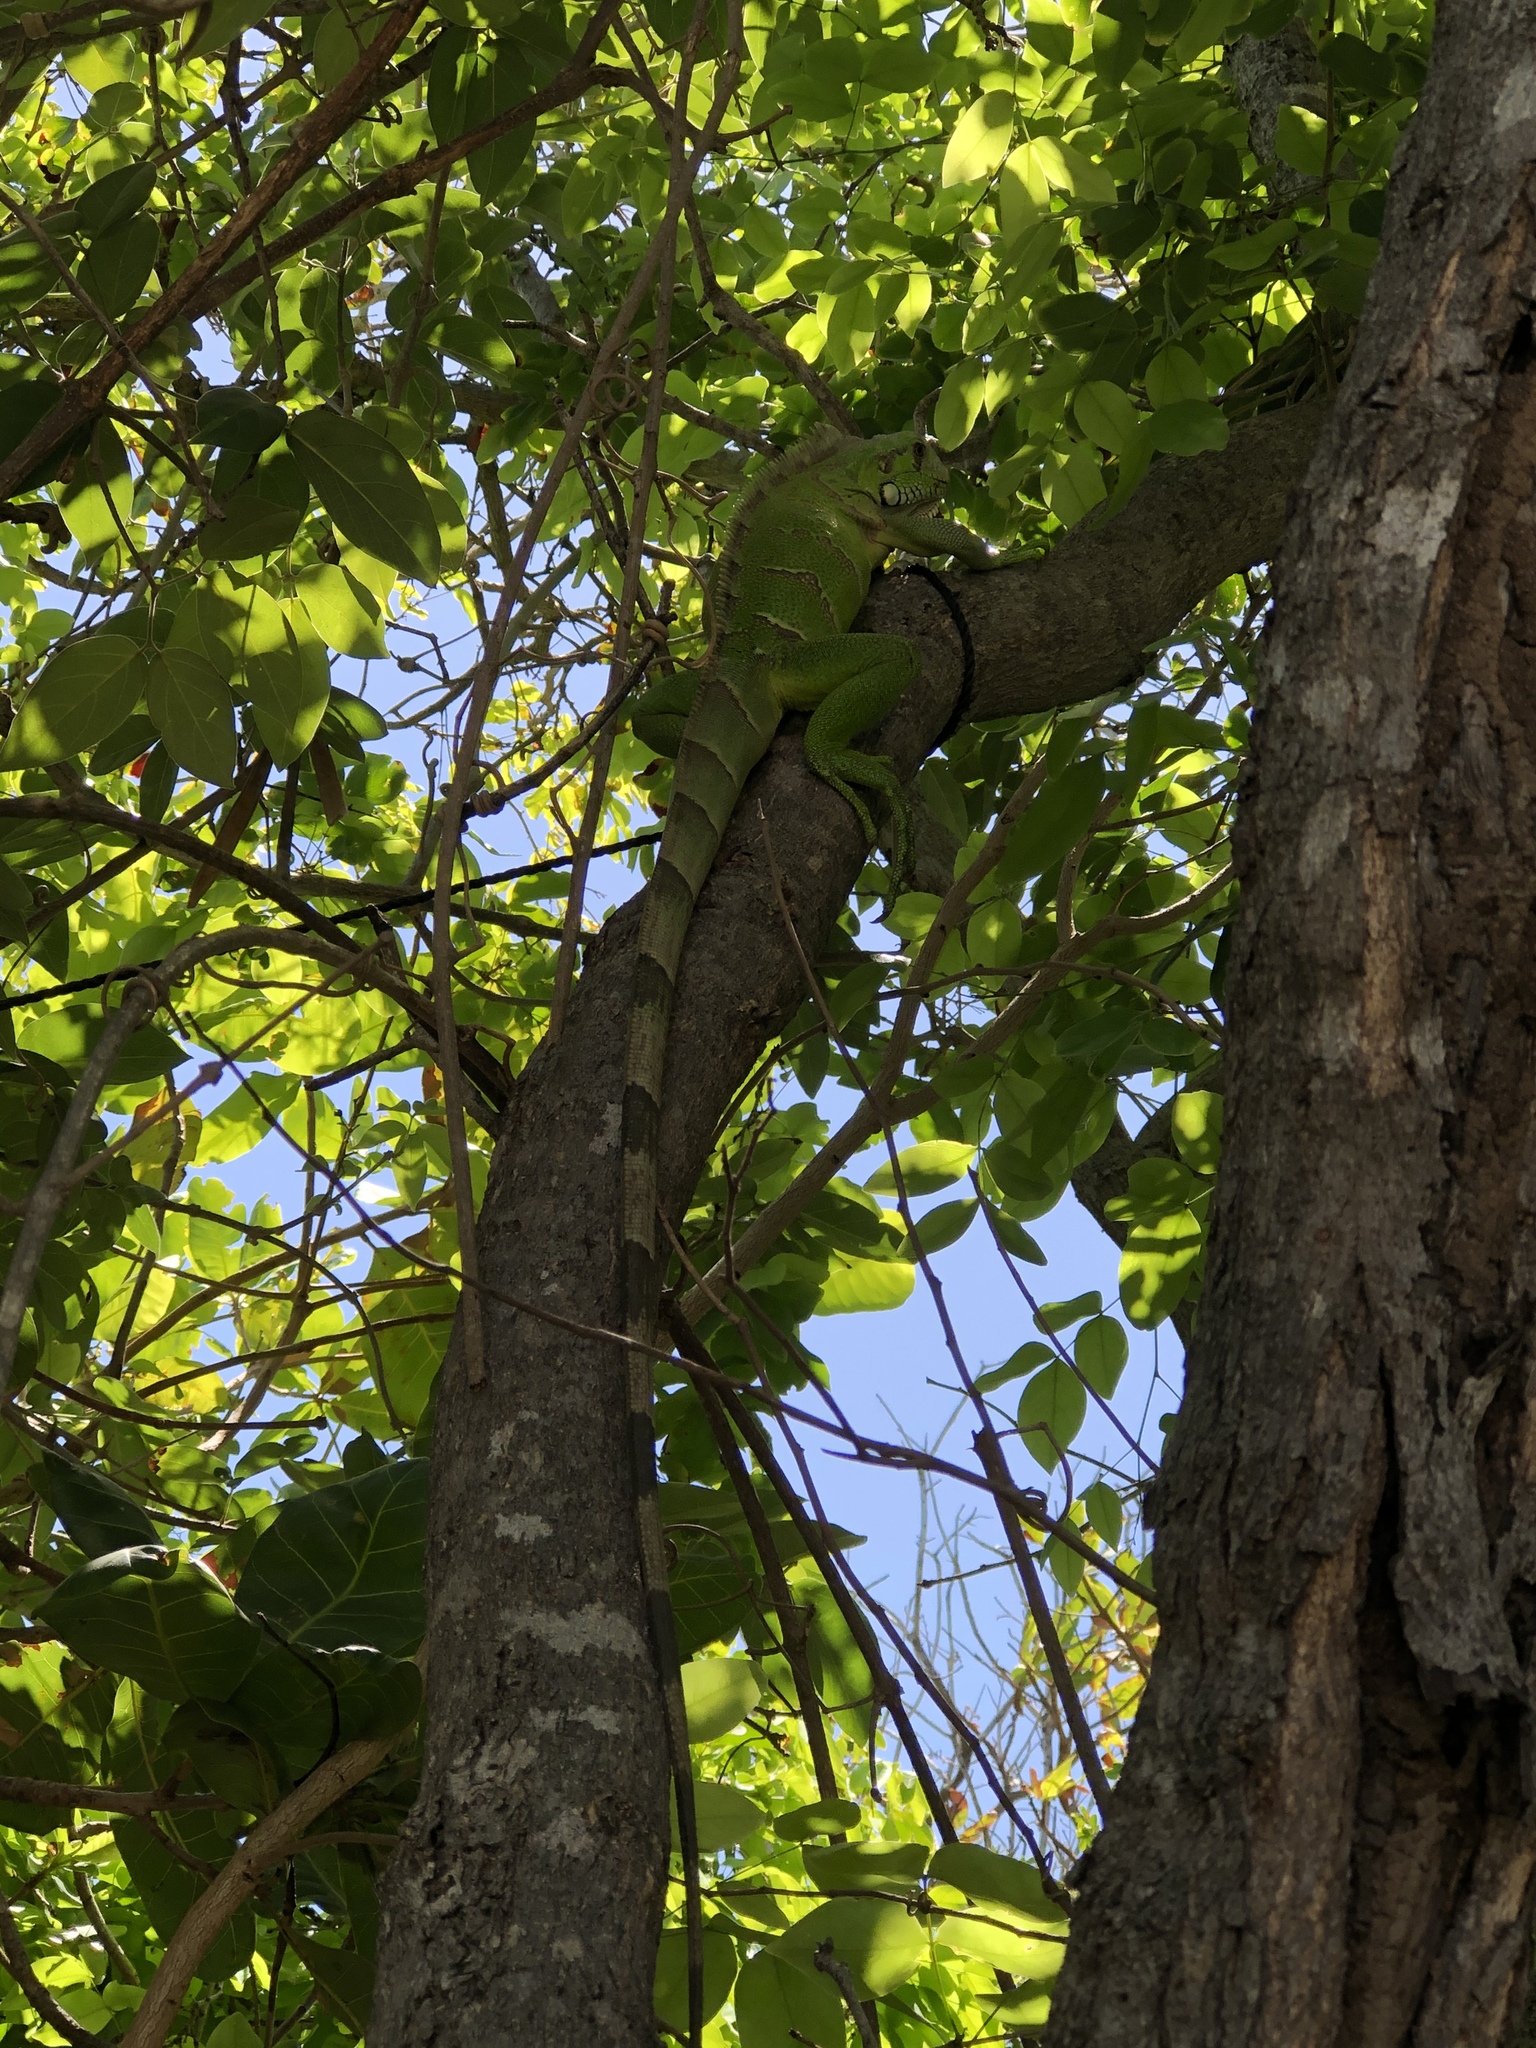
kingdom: Animalia
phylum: Chordata
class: Squamata
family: Iguanidae
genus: Iguana
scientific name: Iguana iguana
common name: Green iguana
